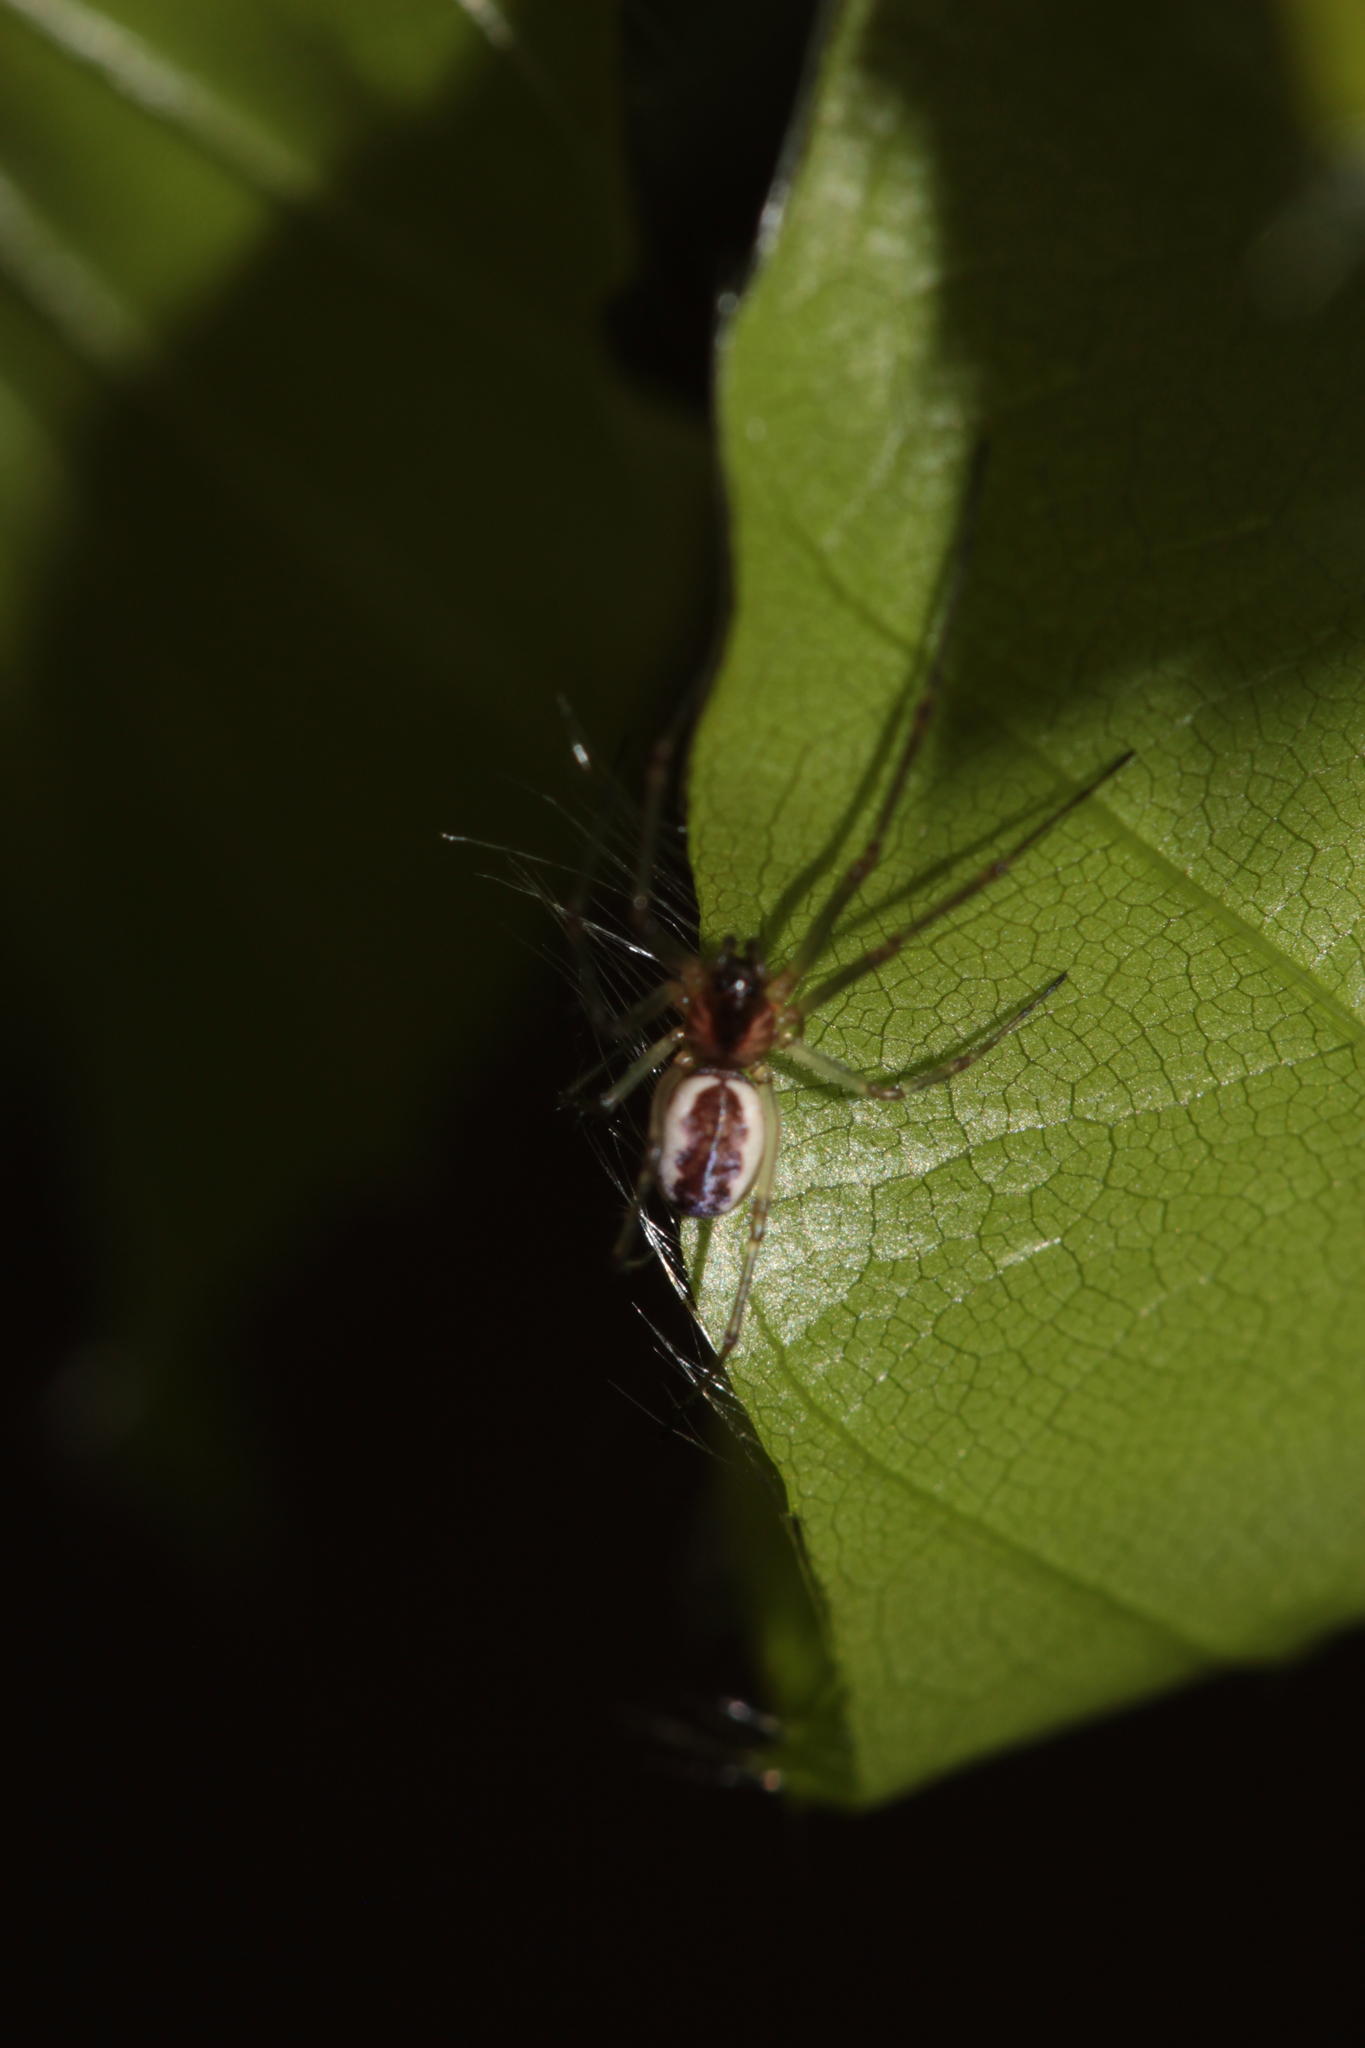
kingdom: Animalia
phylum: Arthropoda
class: Arachnida
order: Araneae
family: Linyphiidae
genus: Neriene
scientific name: Neriene peltata
